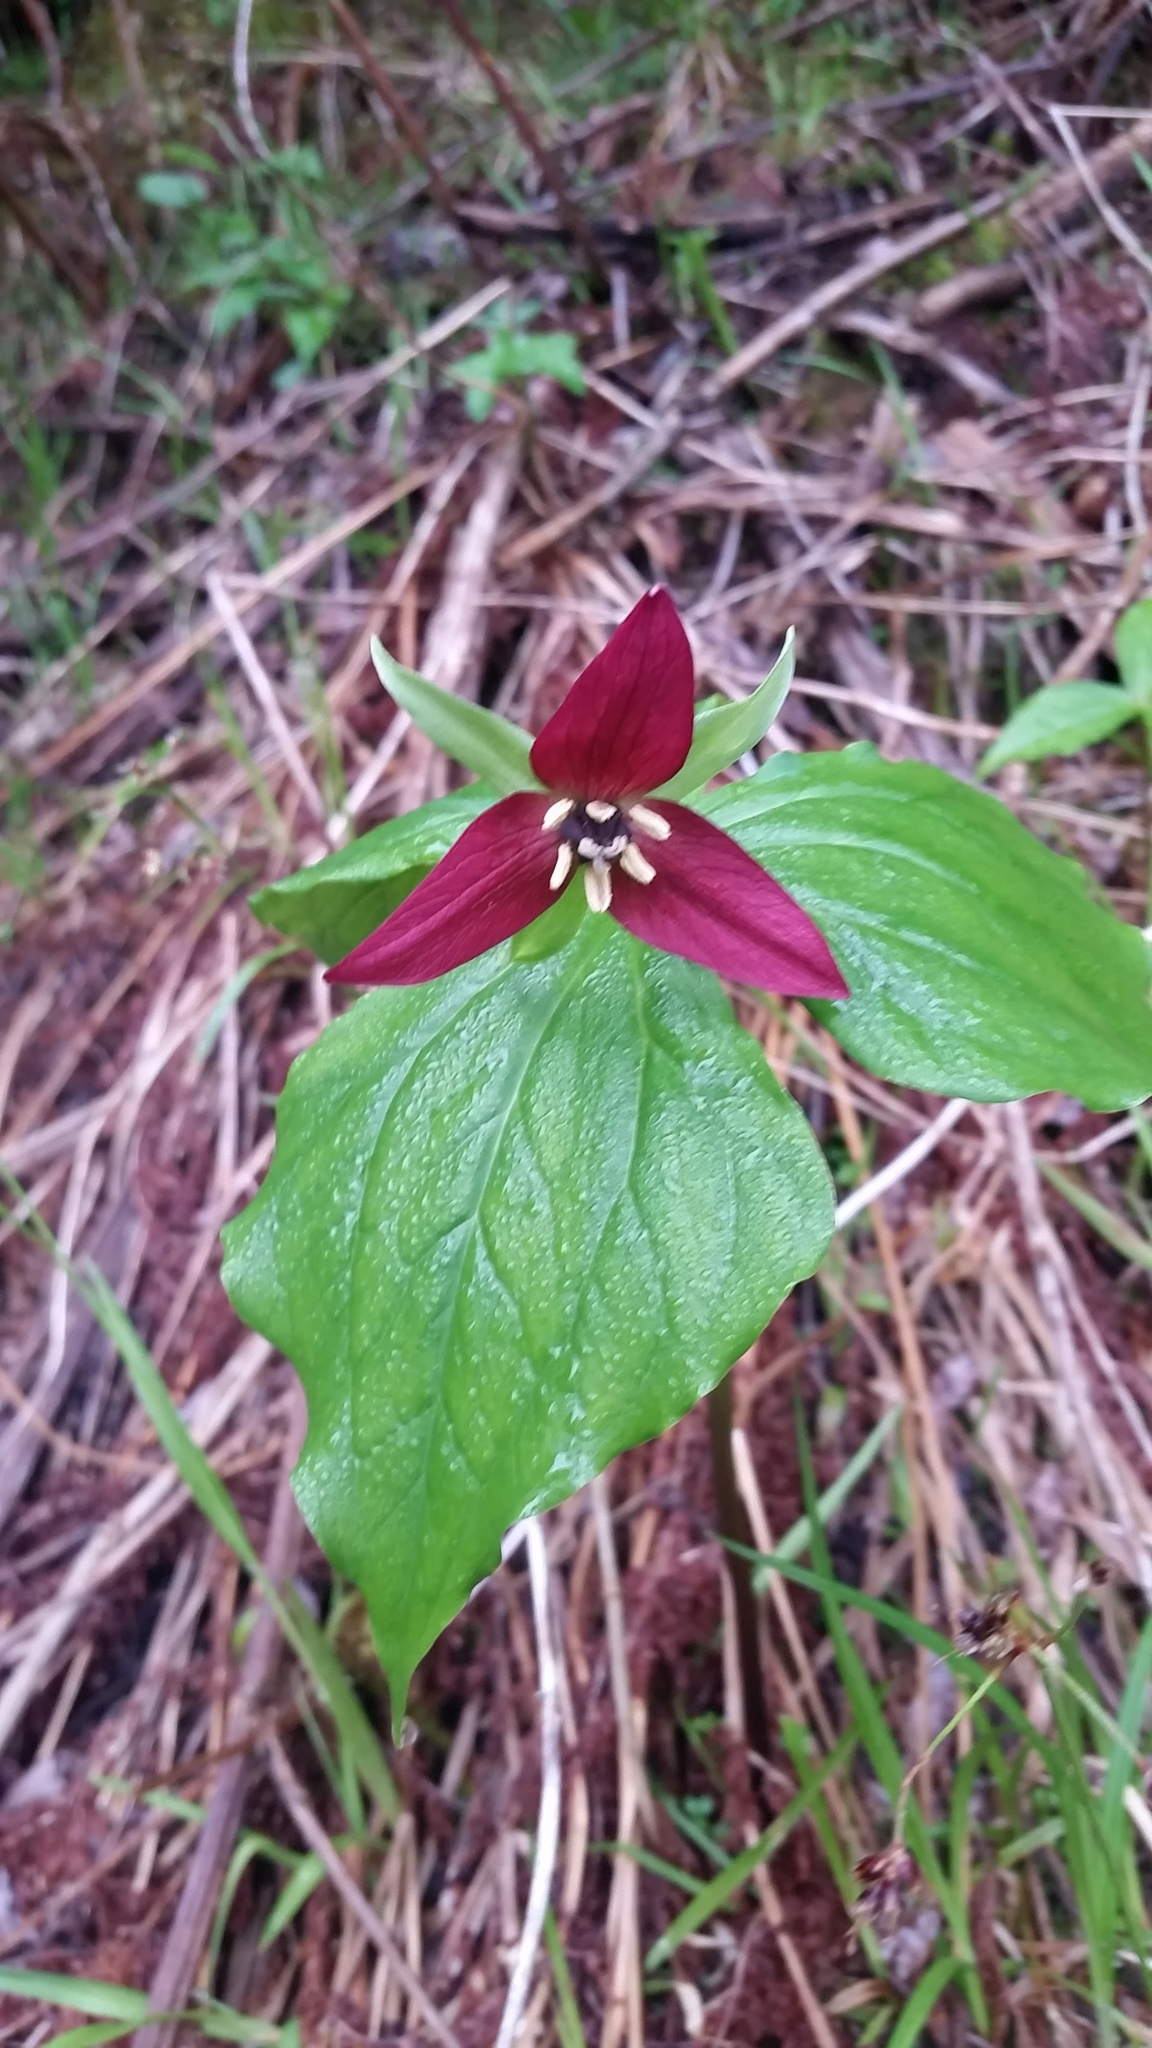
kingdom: Plantae
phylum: Tracheophyta
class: Liliopsida
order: Liliales
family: Melanthiaceae
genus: Trillium
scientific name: Trillium erectum
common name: Purple trillium
